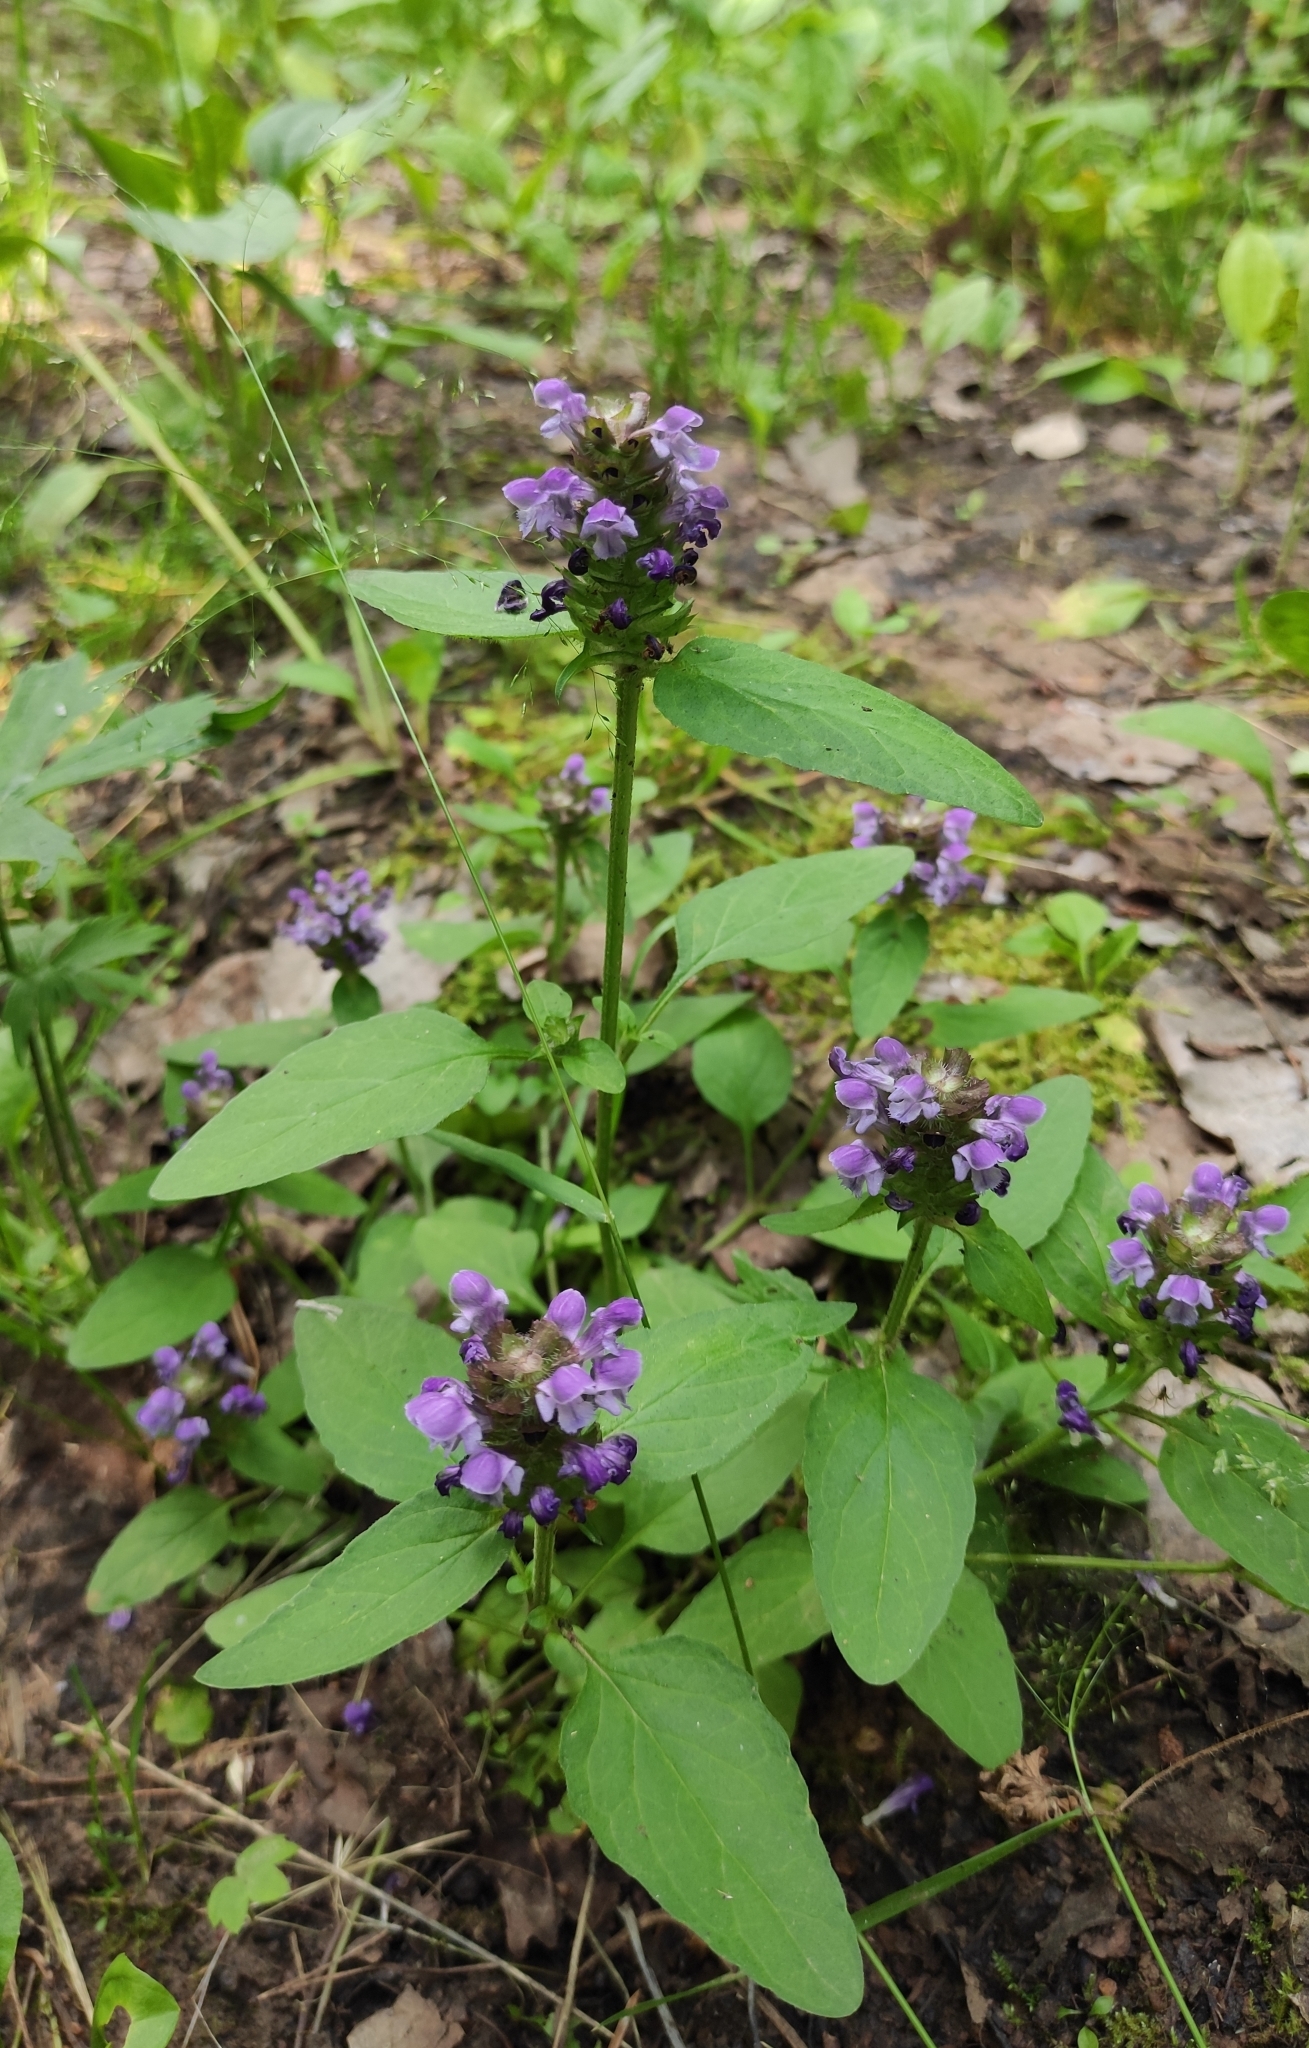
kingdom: Plantae
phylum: Tracheophyta
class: Magnoliopsida
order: Lamiales
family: Lamiaceae
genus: Prunella
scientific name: Prunella vulgaris
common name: Heal-all
